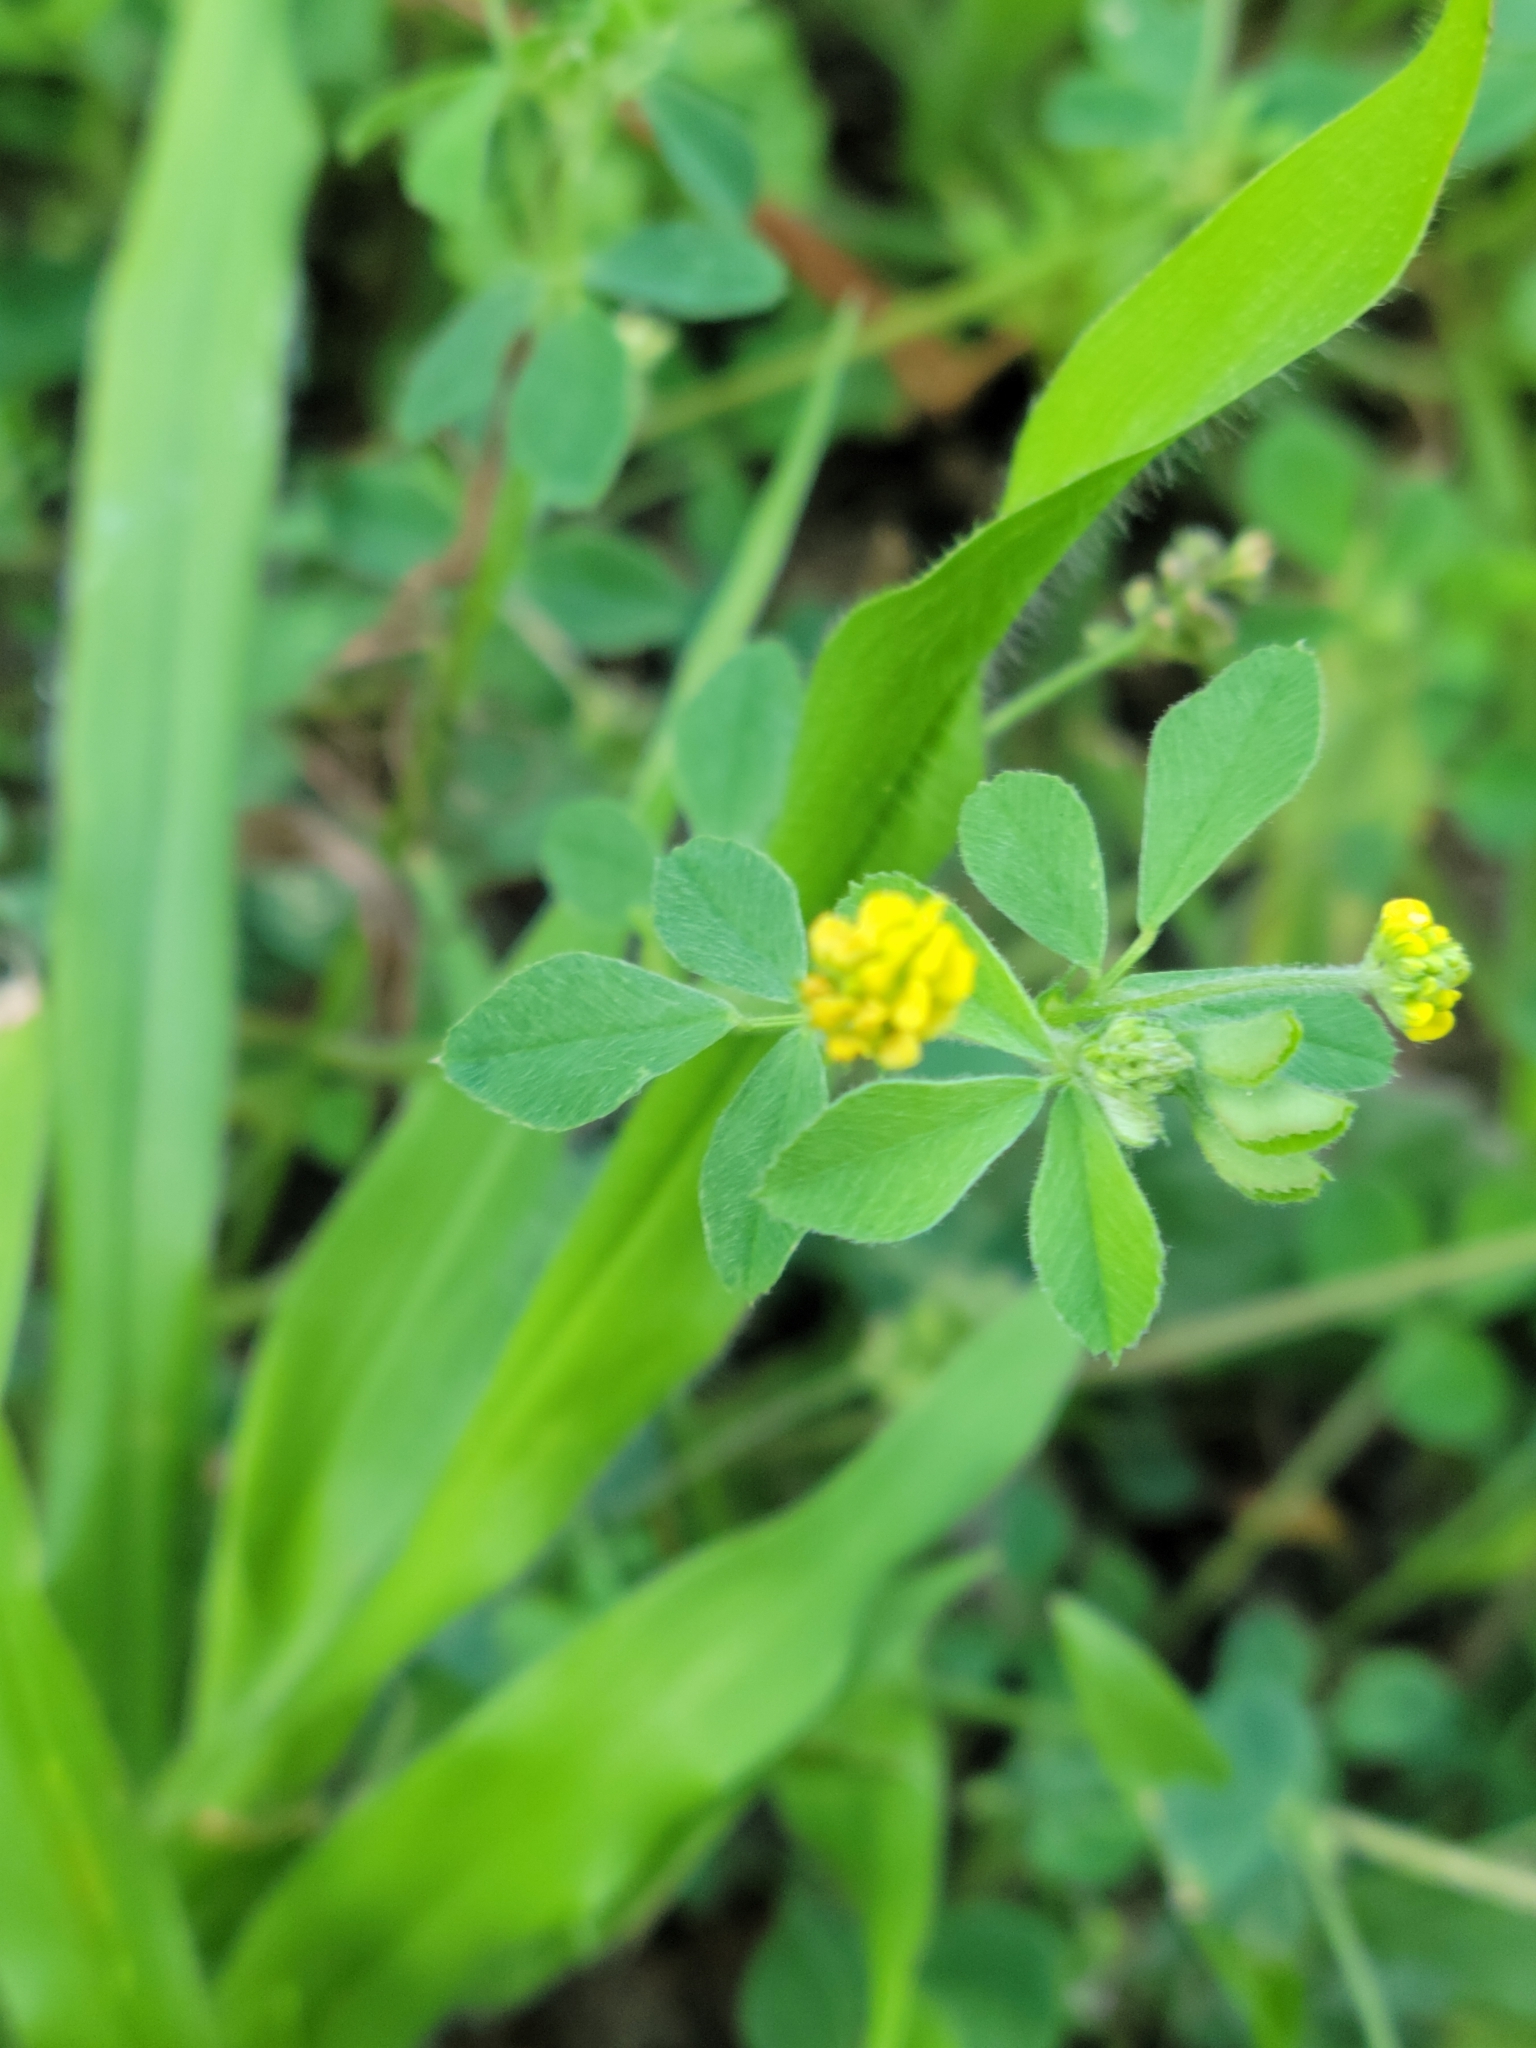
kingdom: Plantae
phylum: Tracheophyta
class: Magnoliopsida
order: Fabales
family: Fabaceae
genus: Medicago
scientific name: Medicago lupulina
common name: Black medick
